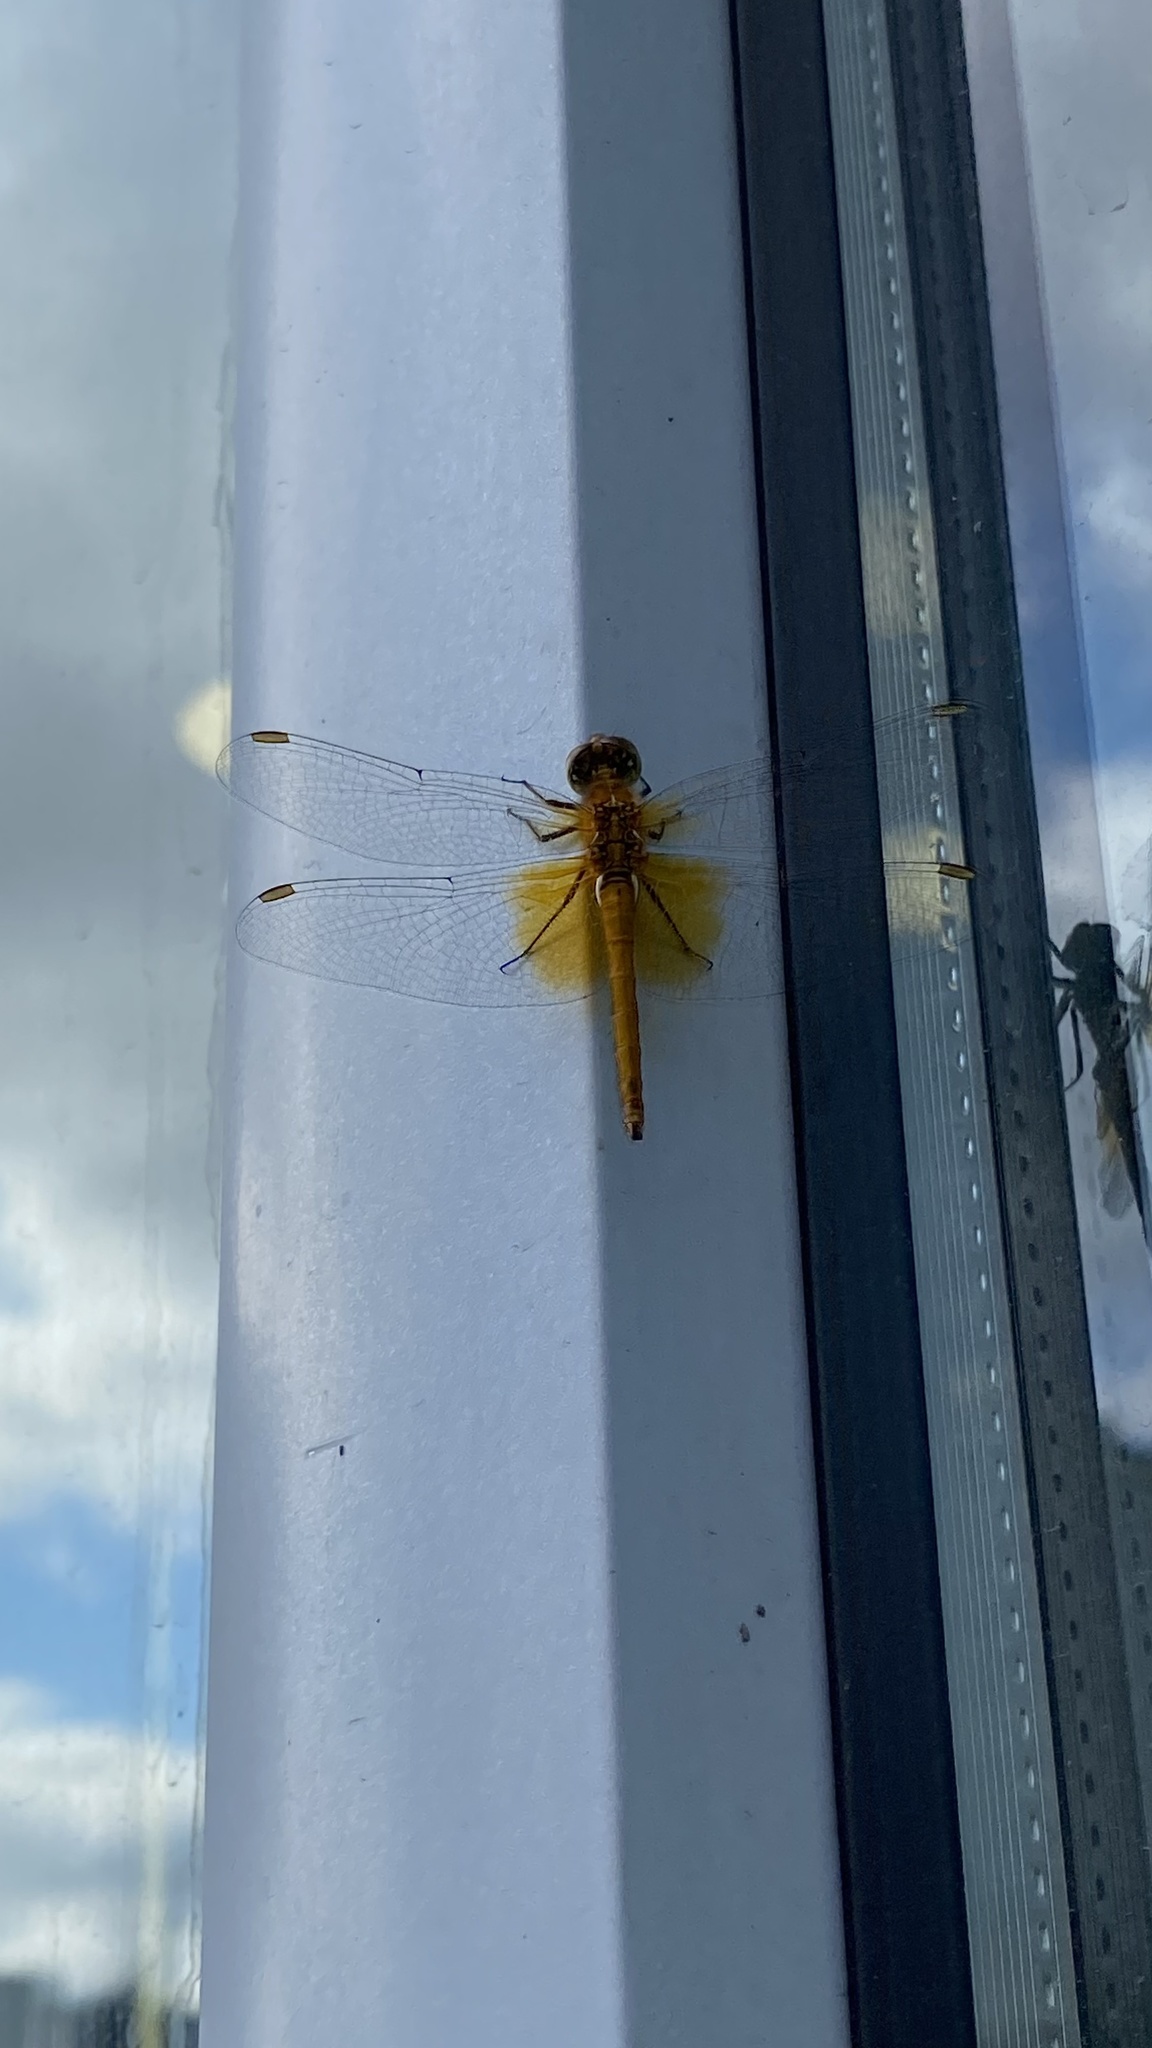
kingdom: Animalia
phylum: Arthropoda
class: Insecta
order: Odonata
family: Libellulidae
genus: Sympetrum
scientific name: Sympetrum flaveolum
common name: Yellow-winged darter
